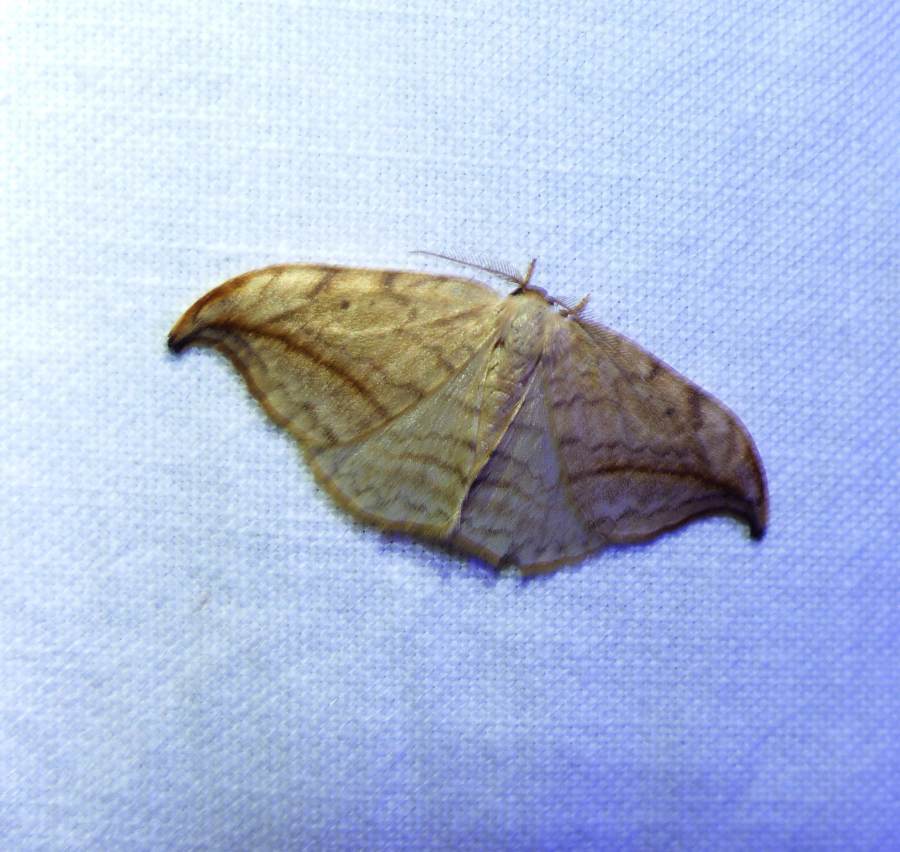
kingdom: Animalia
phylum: Arthropoda
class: Insecta
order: Lepidoptera
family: Drepanidae
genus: Drepana
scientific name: Drepana arcuata
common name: Arched hooktip moth
